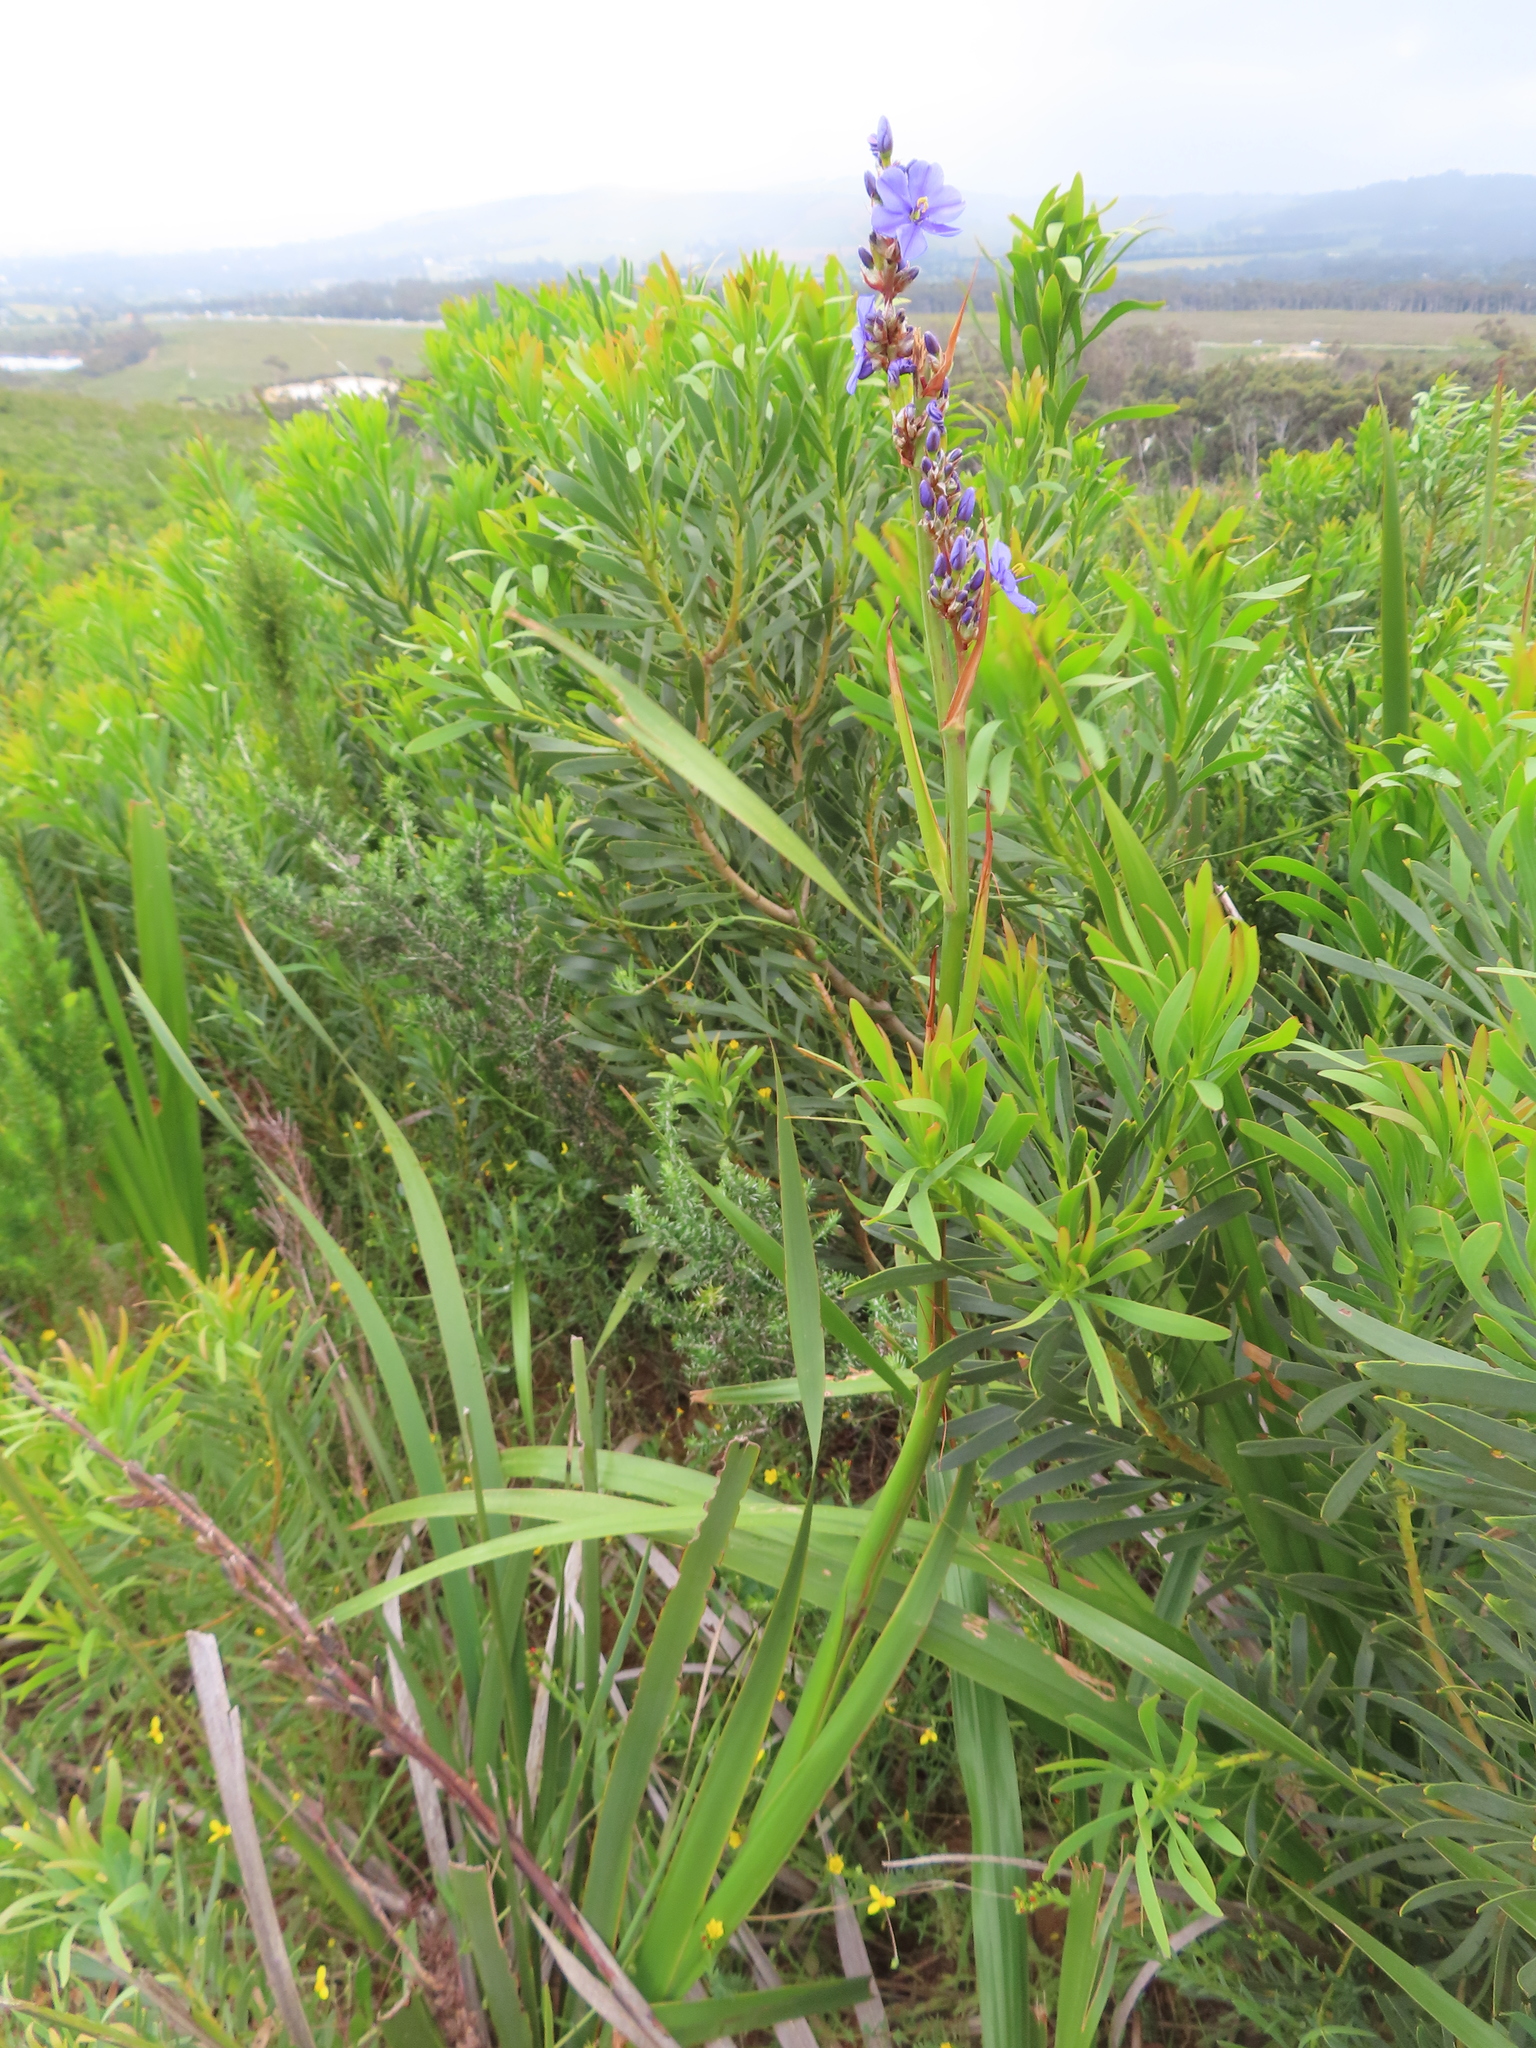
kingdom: Plantae
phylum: Tracheophyta
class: Magnoliopsida
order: Proteales
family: Proteaceae
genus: Protea
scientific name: Protea repens
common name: Sugarbush
